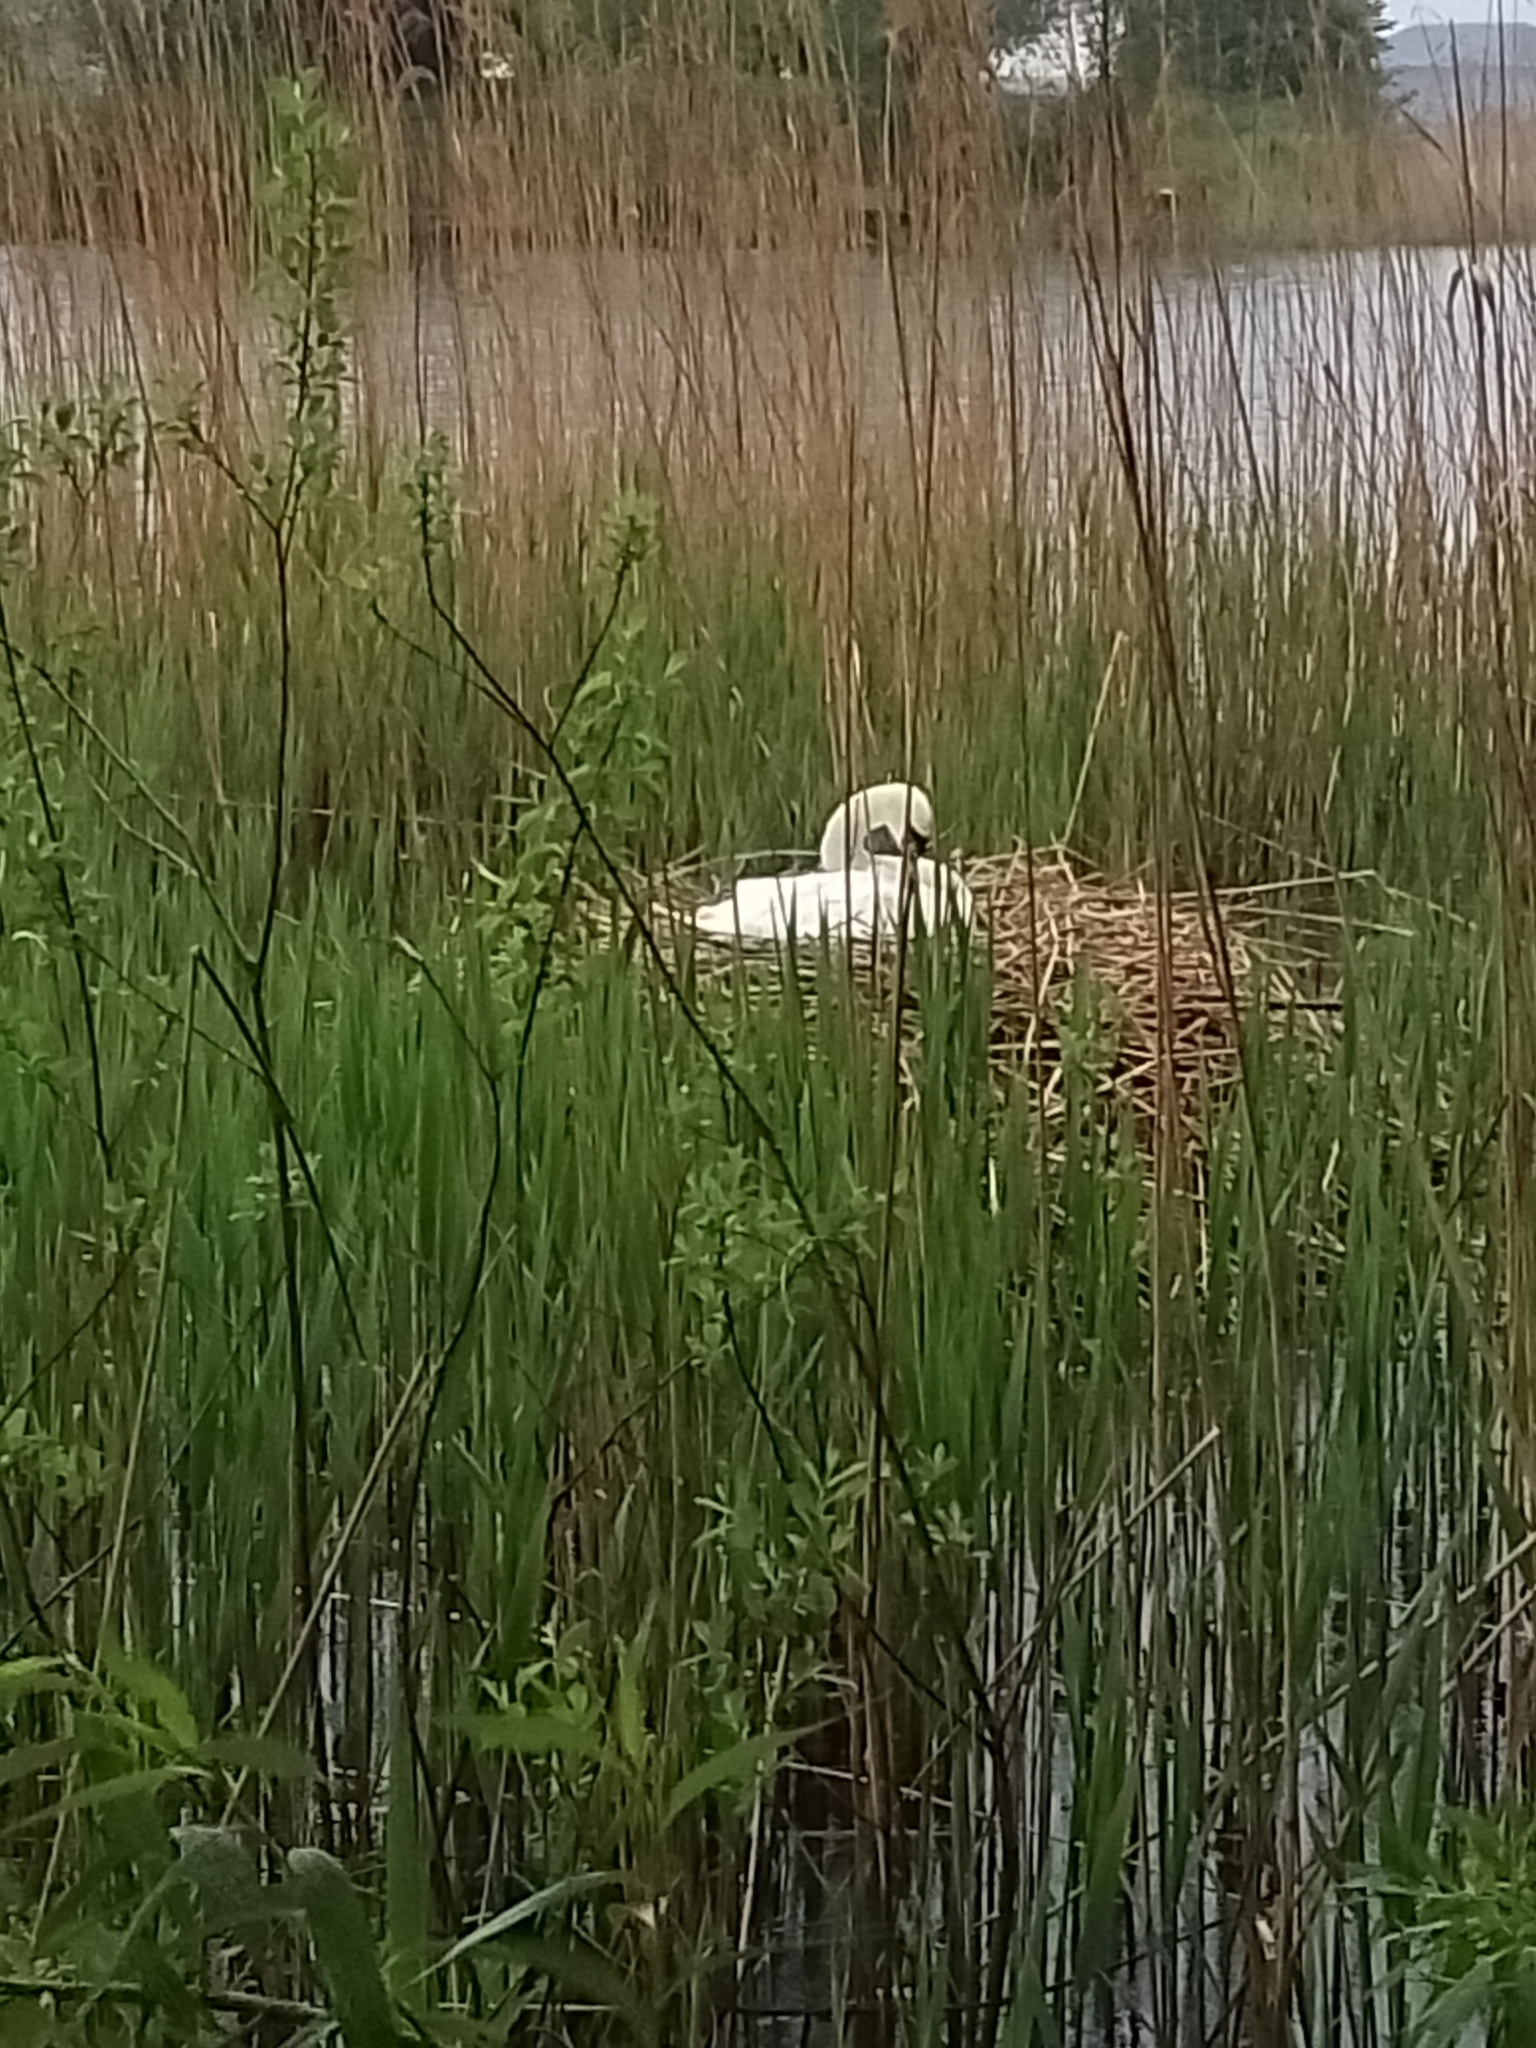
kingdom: Animalia
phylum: Chordata
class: Aves
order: Anseriformes
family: Anatidae
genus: Cygnus
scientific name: Cygnus olor
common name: Mute swan
